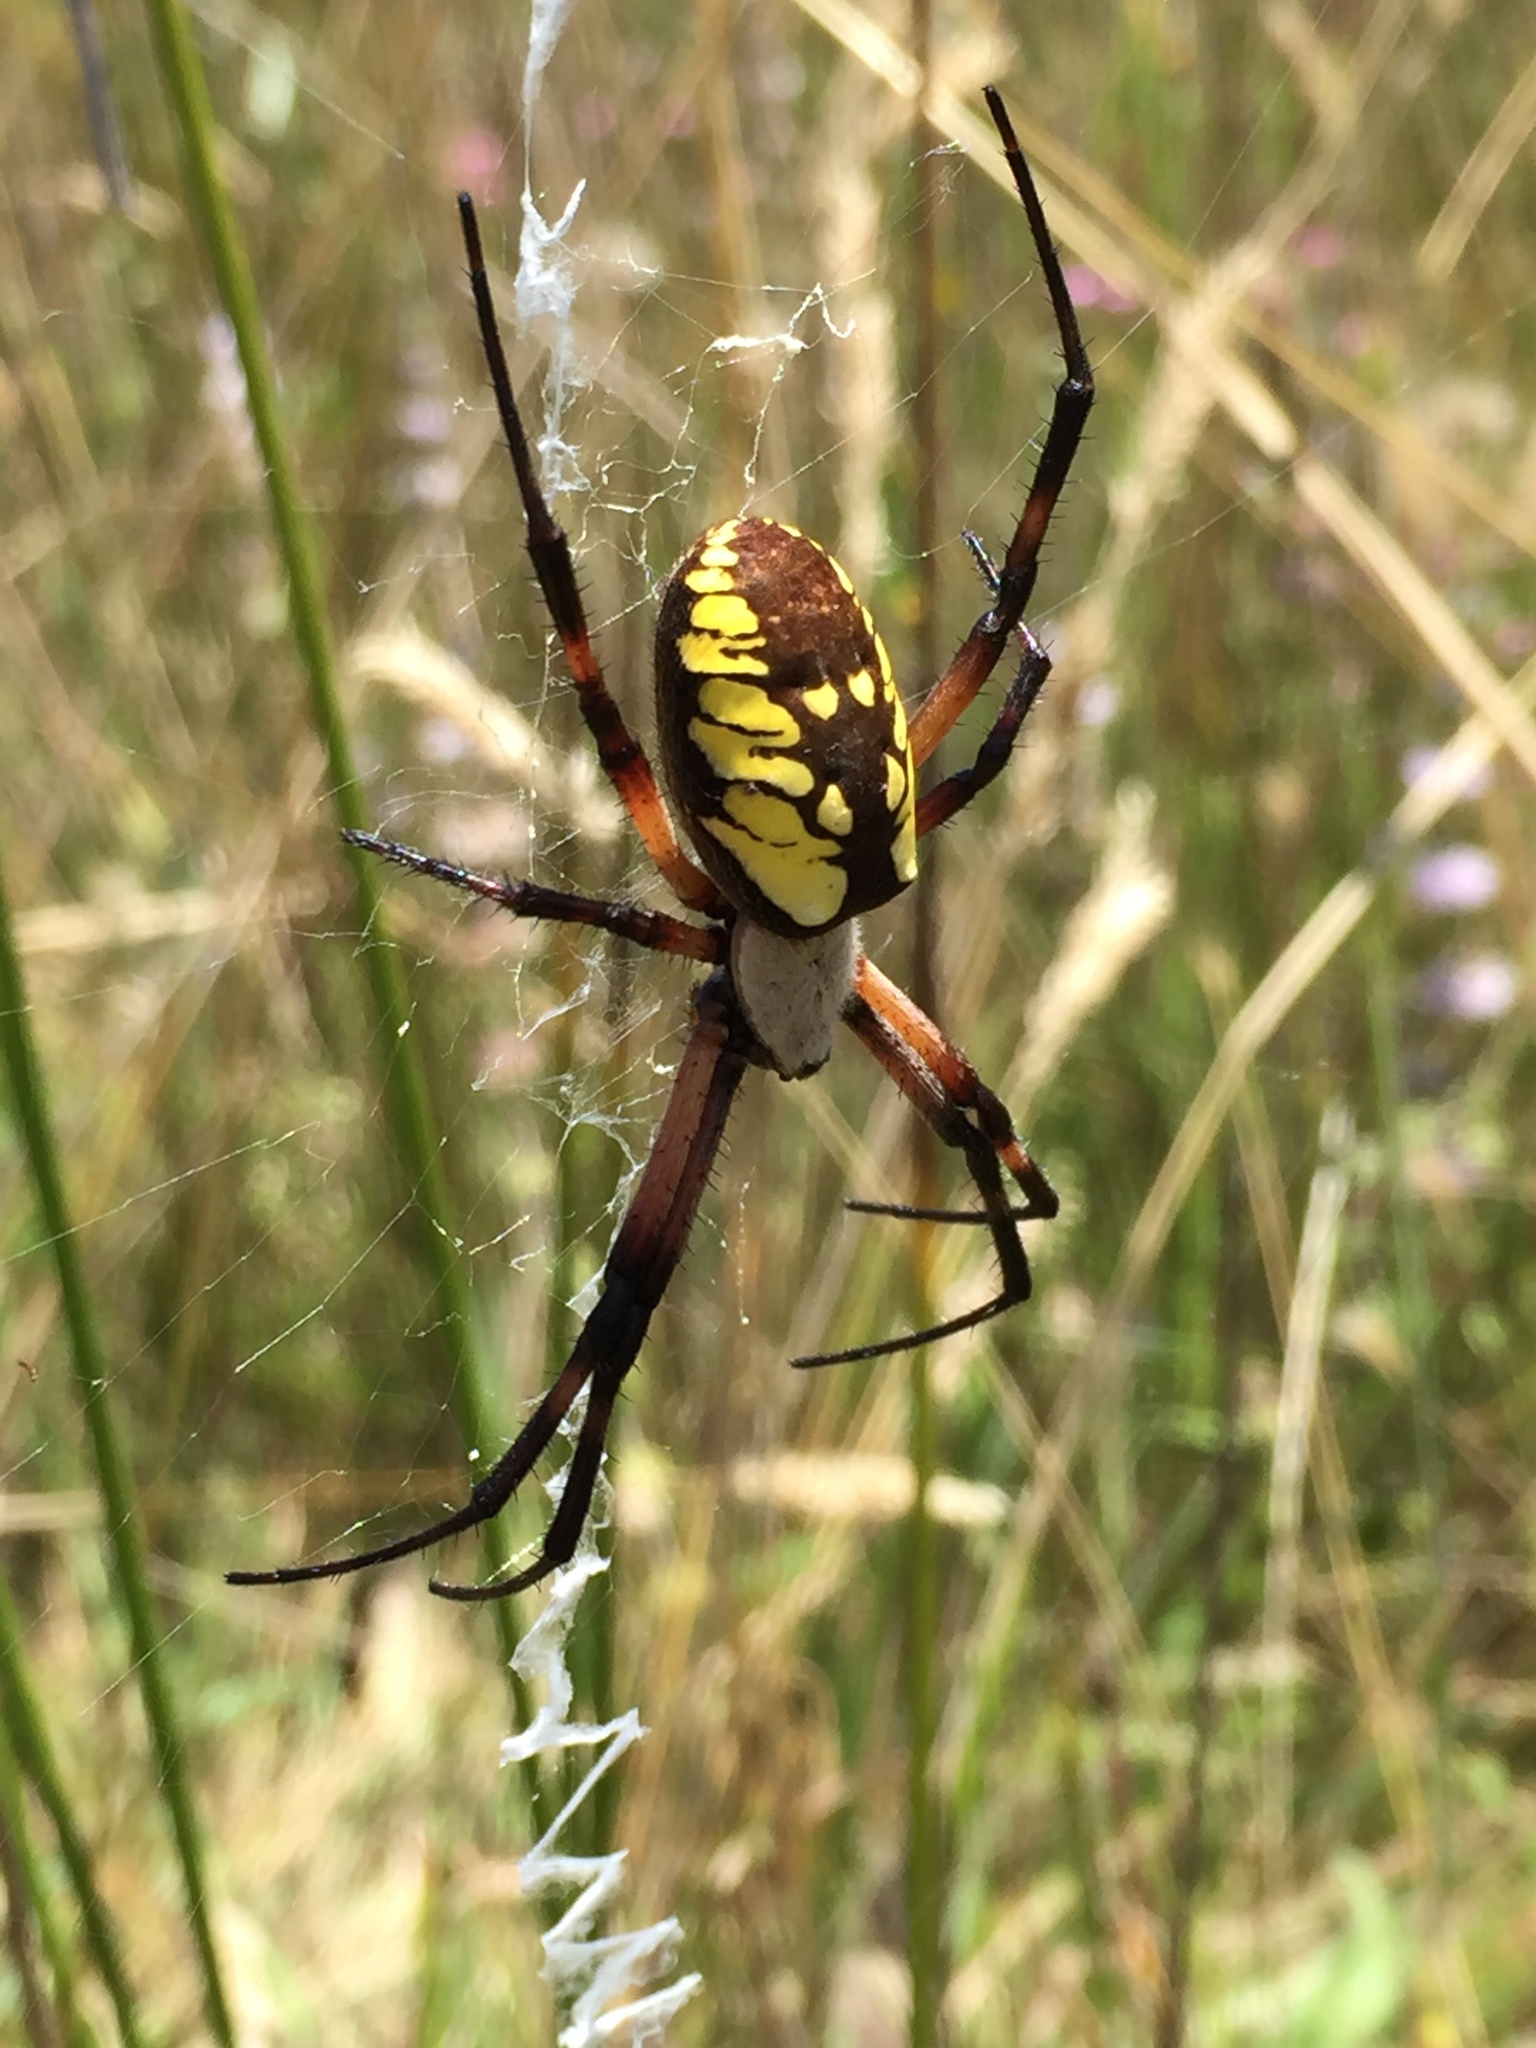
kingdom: Animalia
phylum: Arthropoda
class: Arachnida
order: Araneae
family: Araneidae
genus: Argiope
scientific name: Argiope aurantia
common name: Orb weavers
